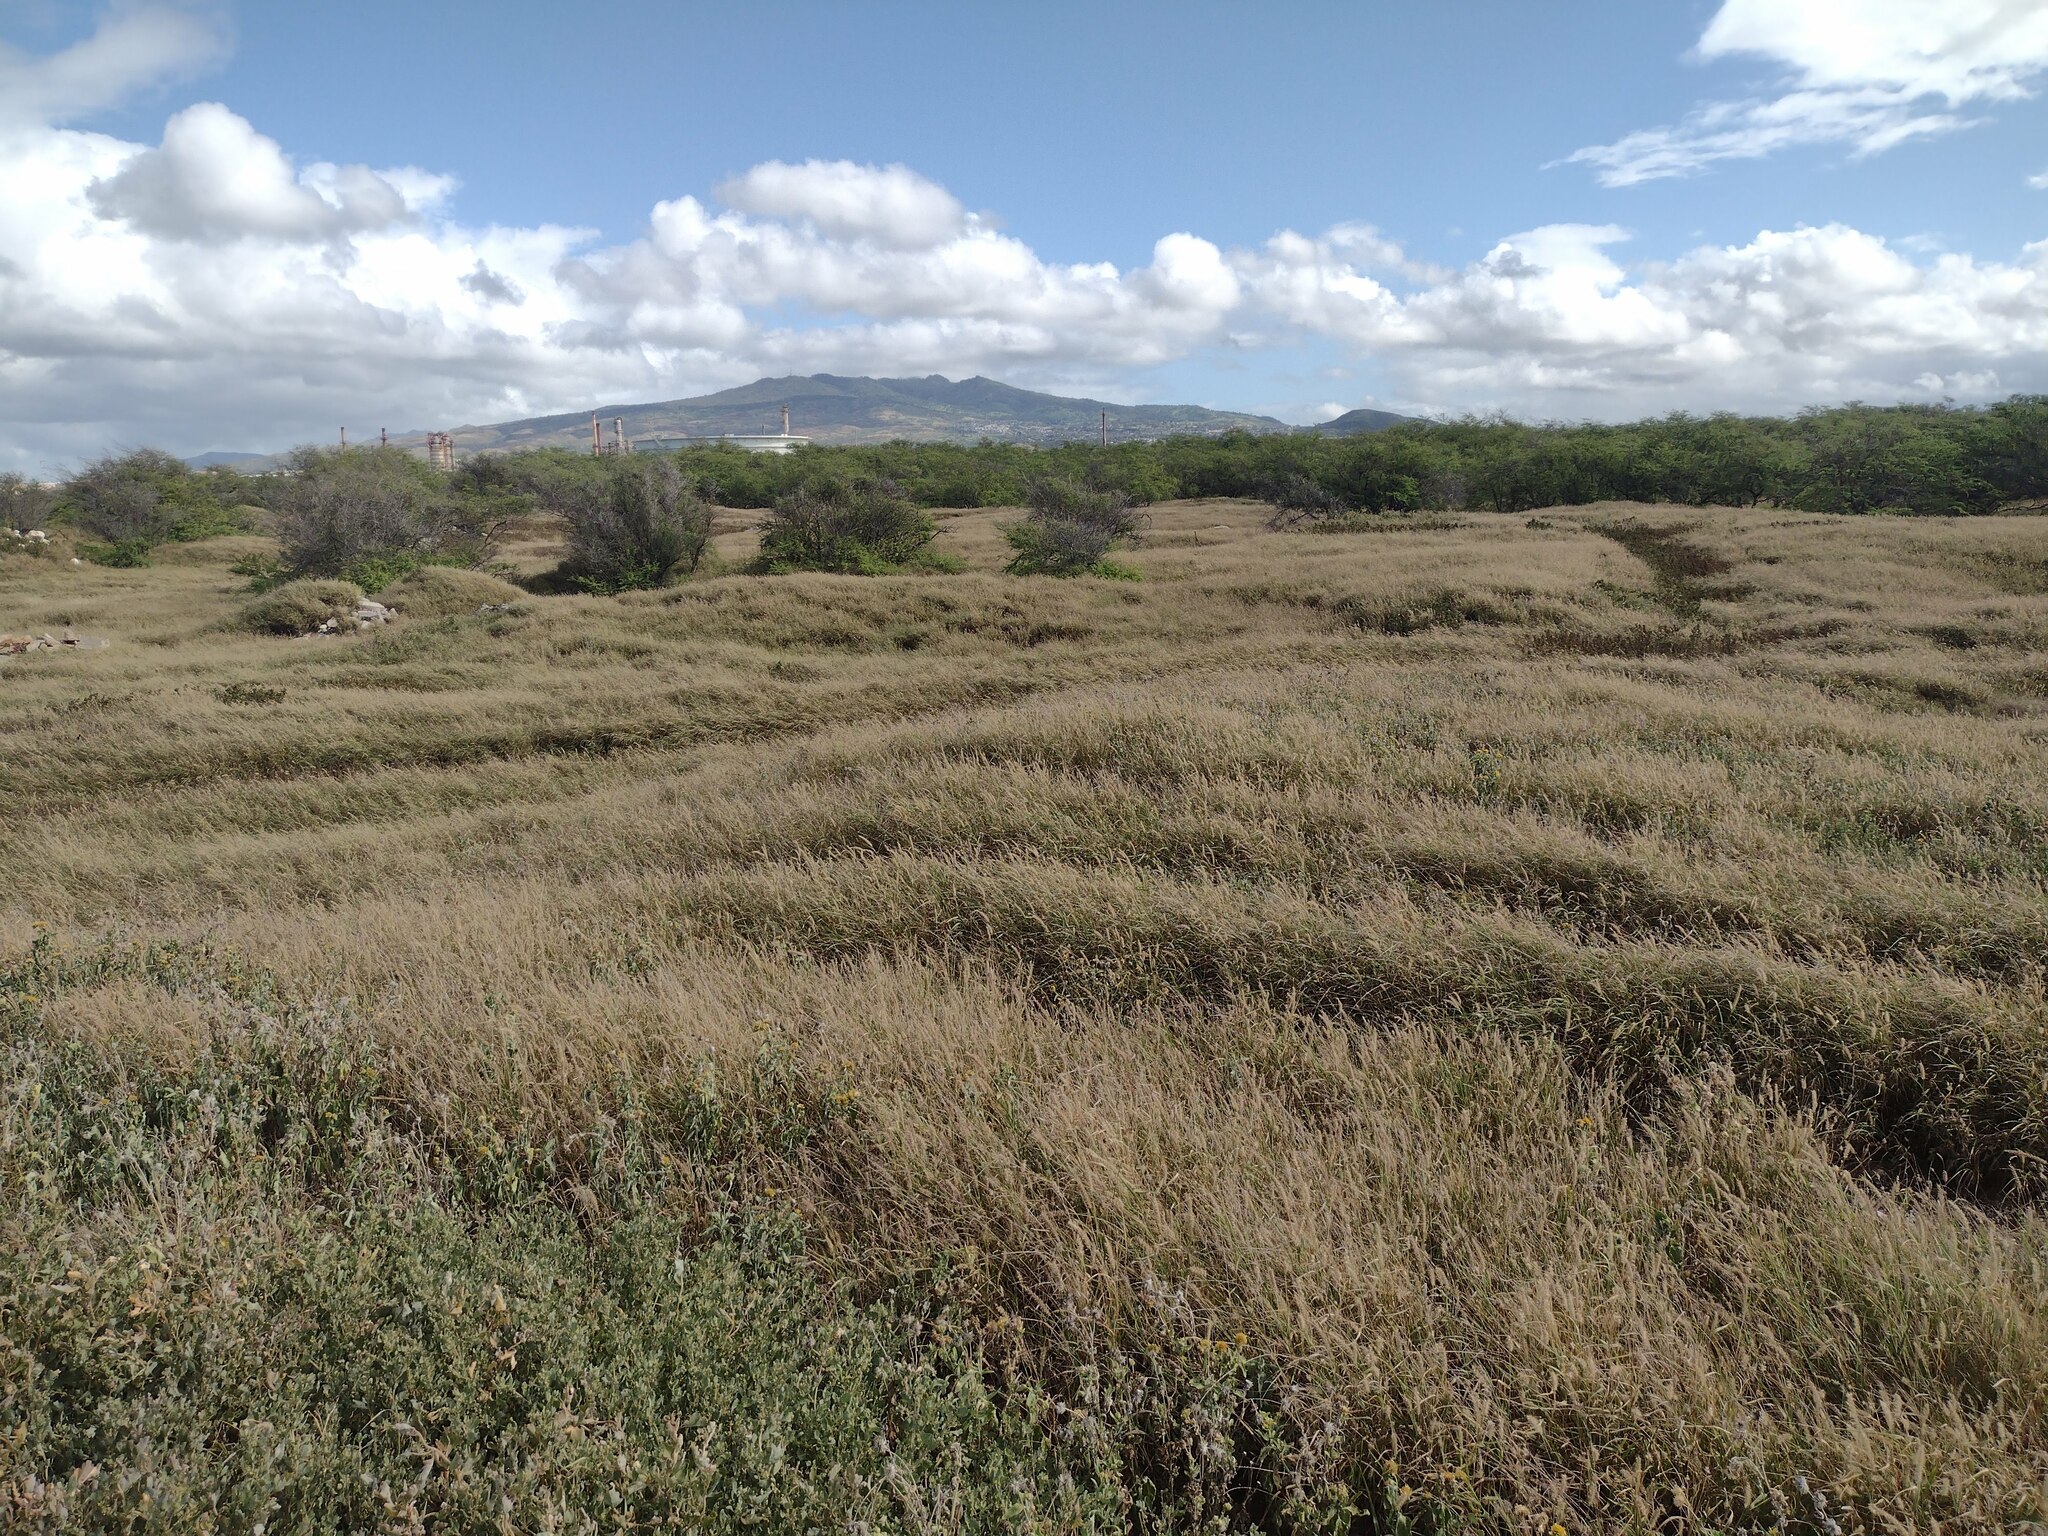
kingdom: Plantae
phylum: Tracheophyta
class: Liliopsida
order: Poales
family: Poaceae
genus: Cenchrus
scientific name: Cenchrus ciliaris
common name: Buffelgrass
